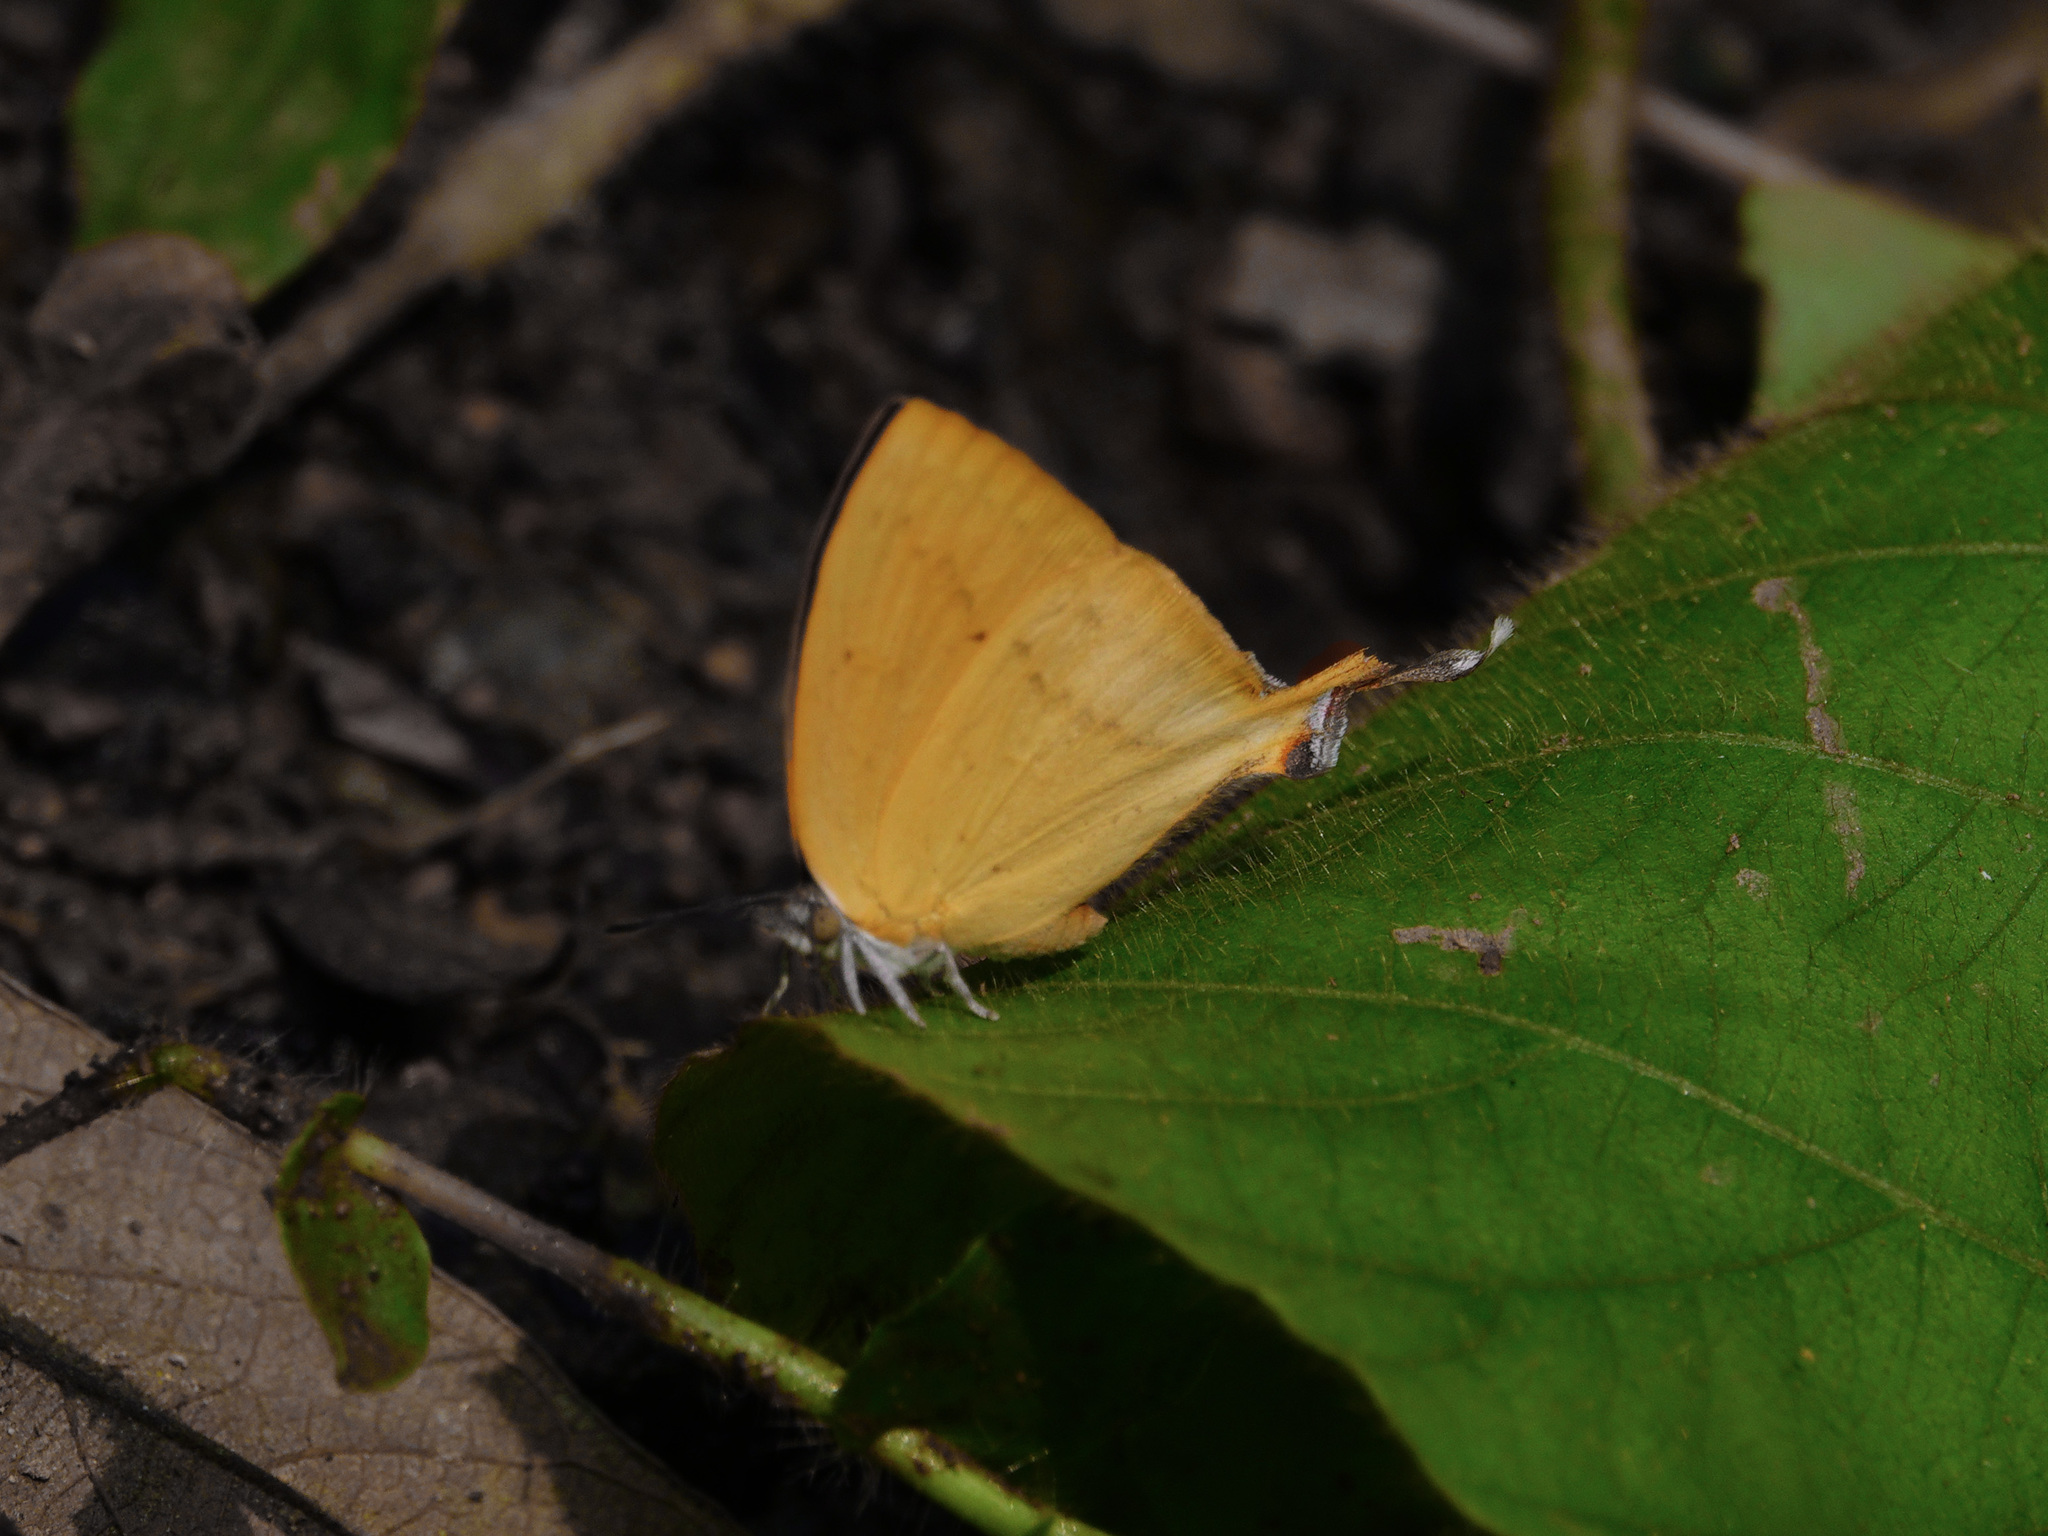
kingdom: Animalia
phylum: Arthropoda
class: Insecta
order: Lepidoptera
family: Lycaenidae
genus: Loxura
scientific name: Loxura atymnus
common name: Common yamfly
